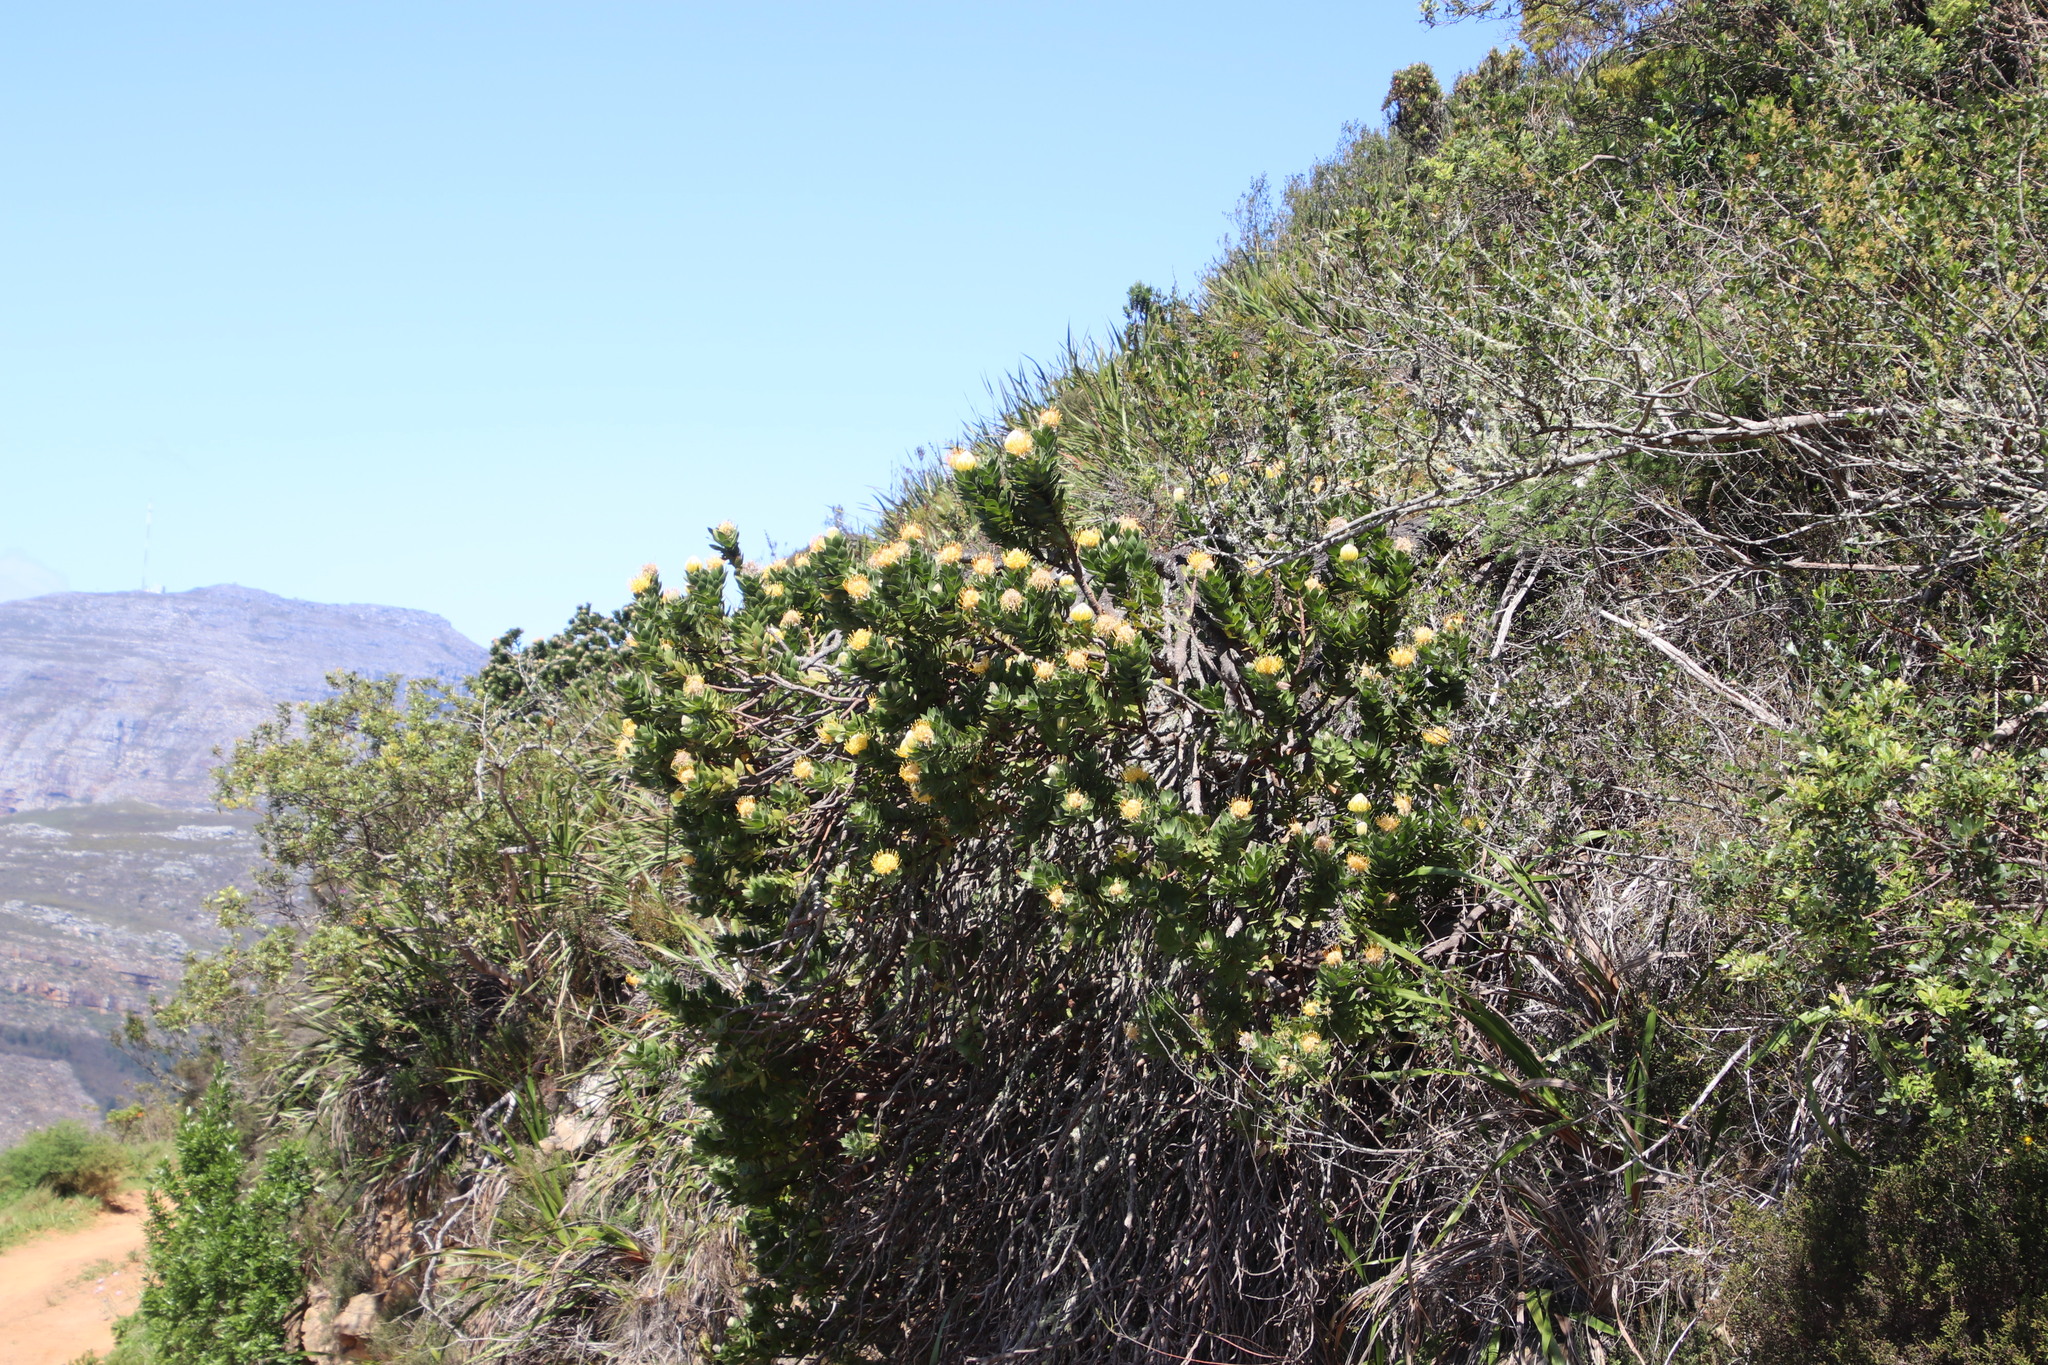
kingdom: Plantae
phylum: Tracheophyta
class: Magnoliopsida
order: Proteales
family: Proteaceae
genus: Leucospermum
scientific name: Leucospermum conocarpodendron
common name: Tree pincushion
